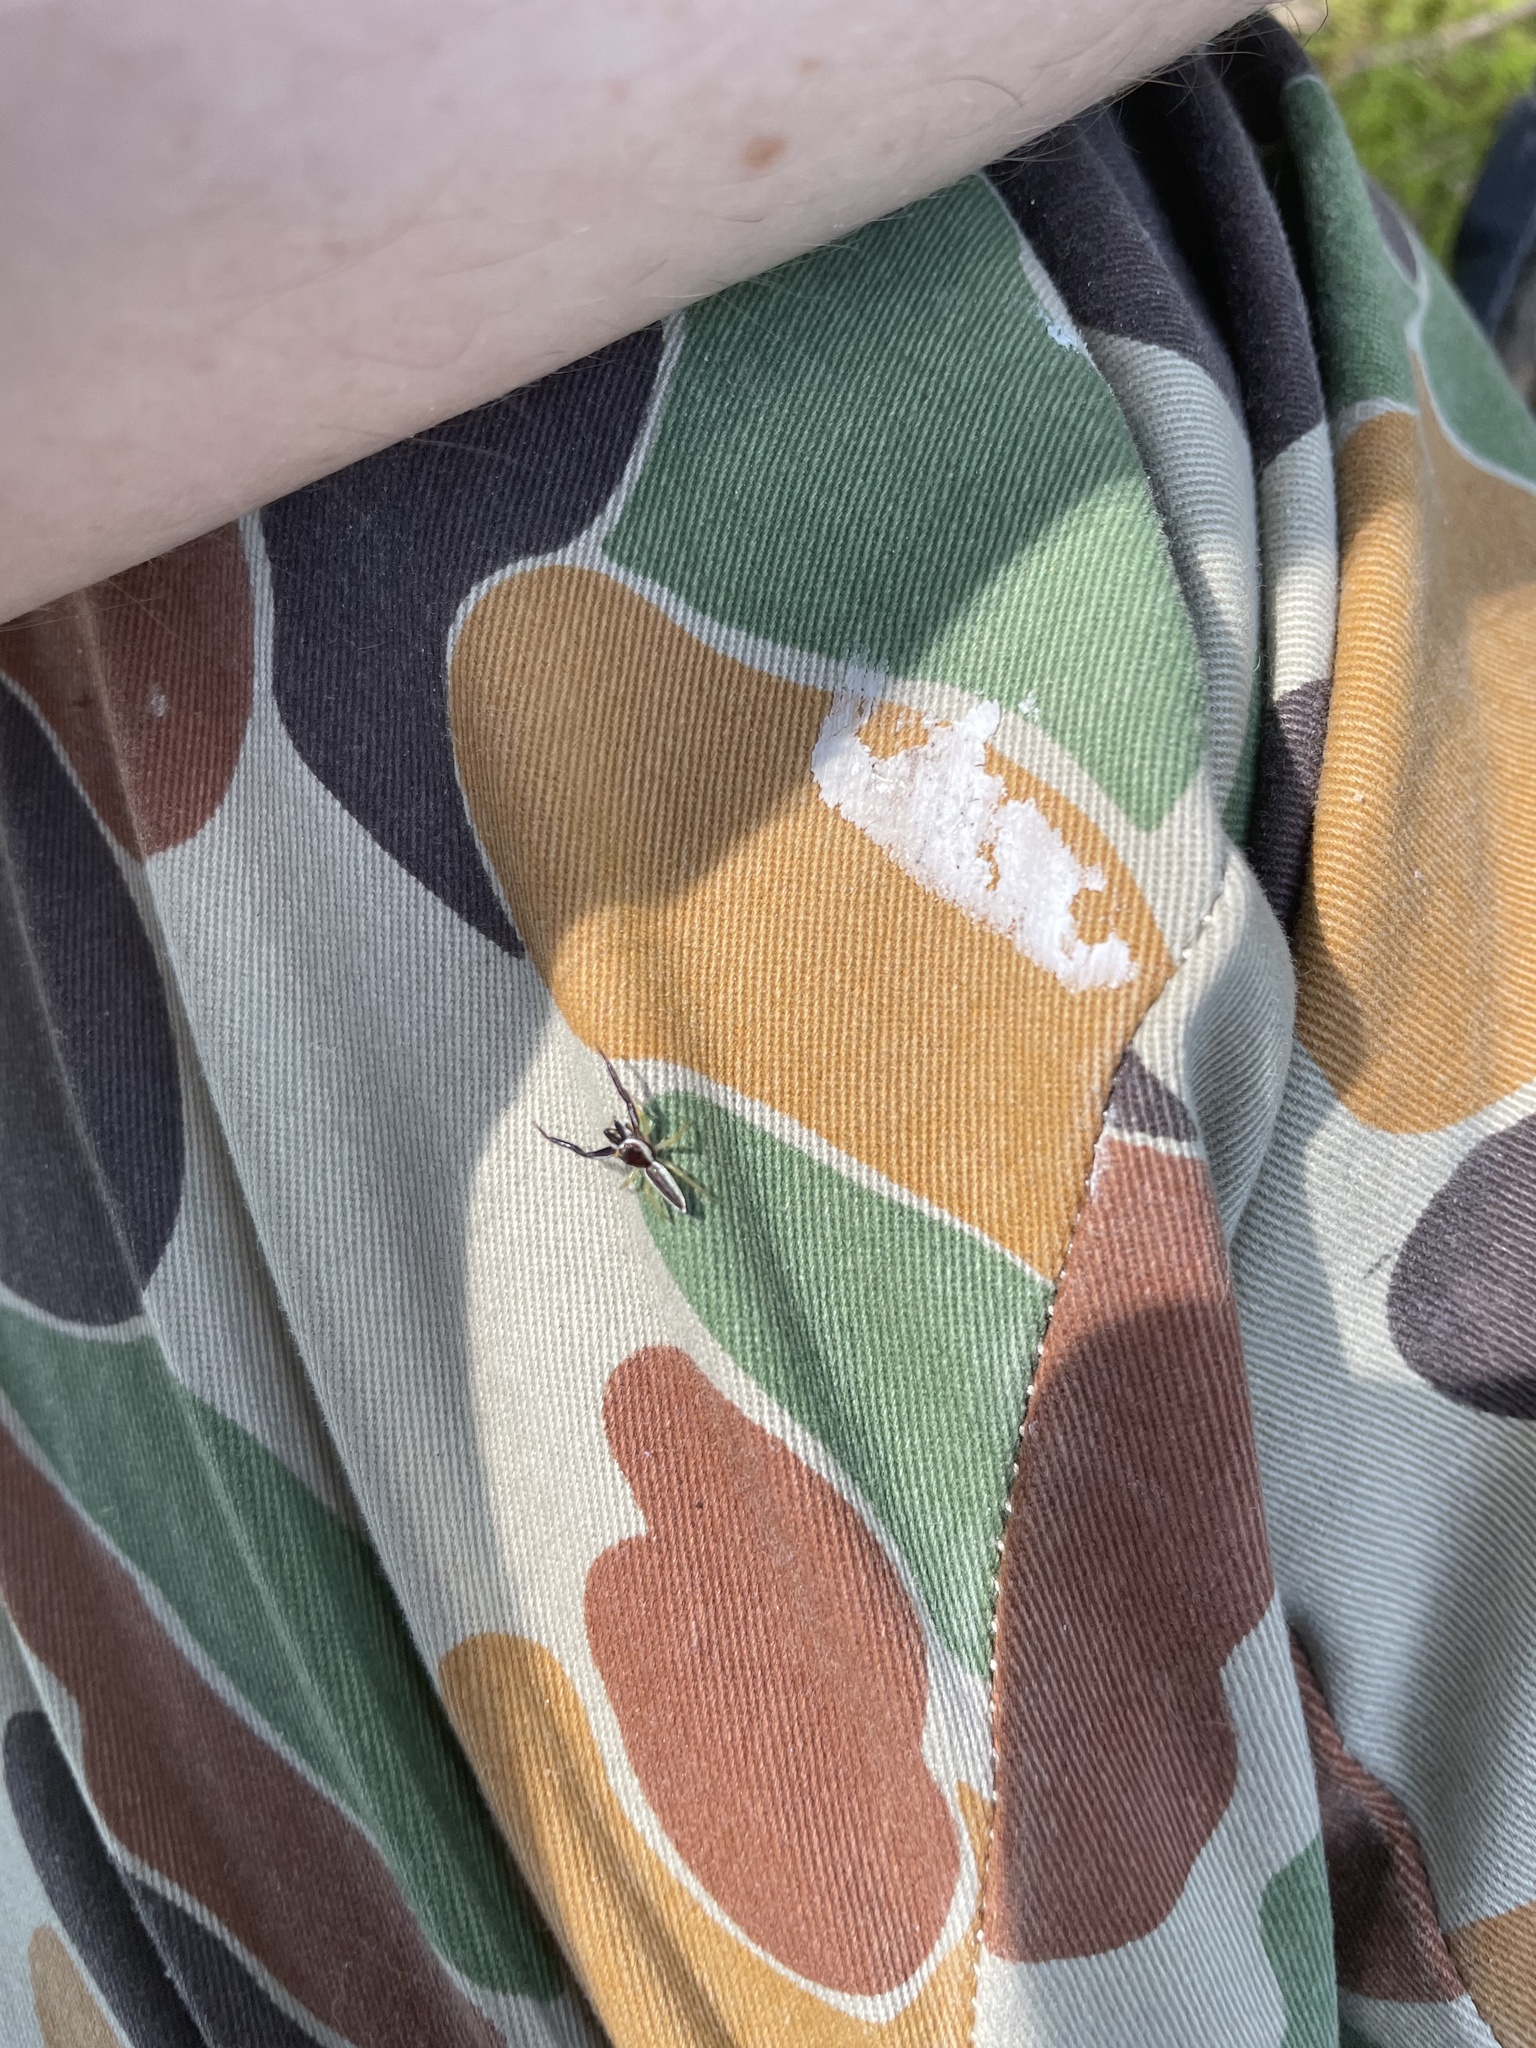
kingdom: Animalia
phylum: Arthropoda
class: Arachnida
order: Araneae
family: Salticidae
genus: Hentzia
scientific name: Hentzia palmarum
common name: Common hentz jumping spider
